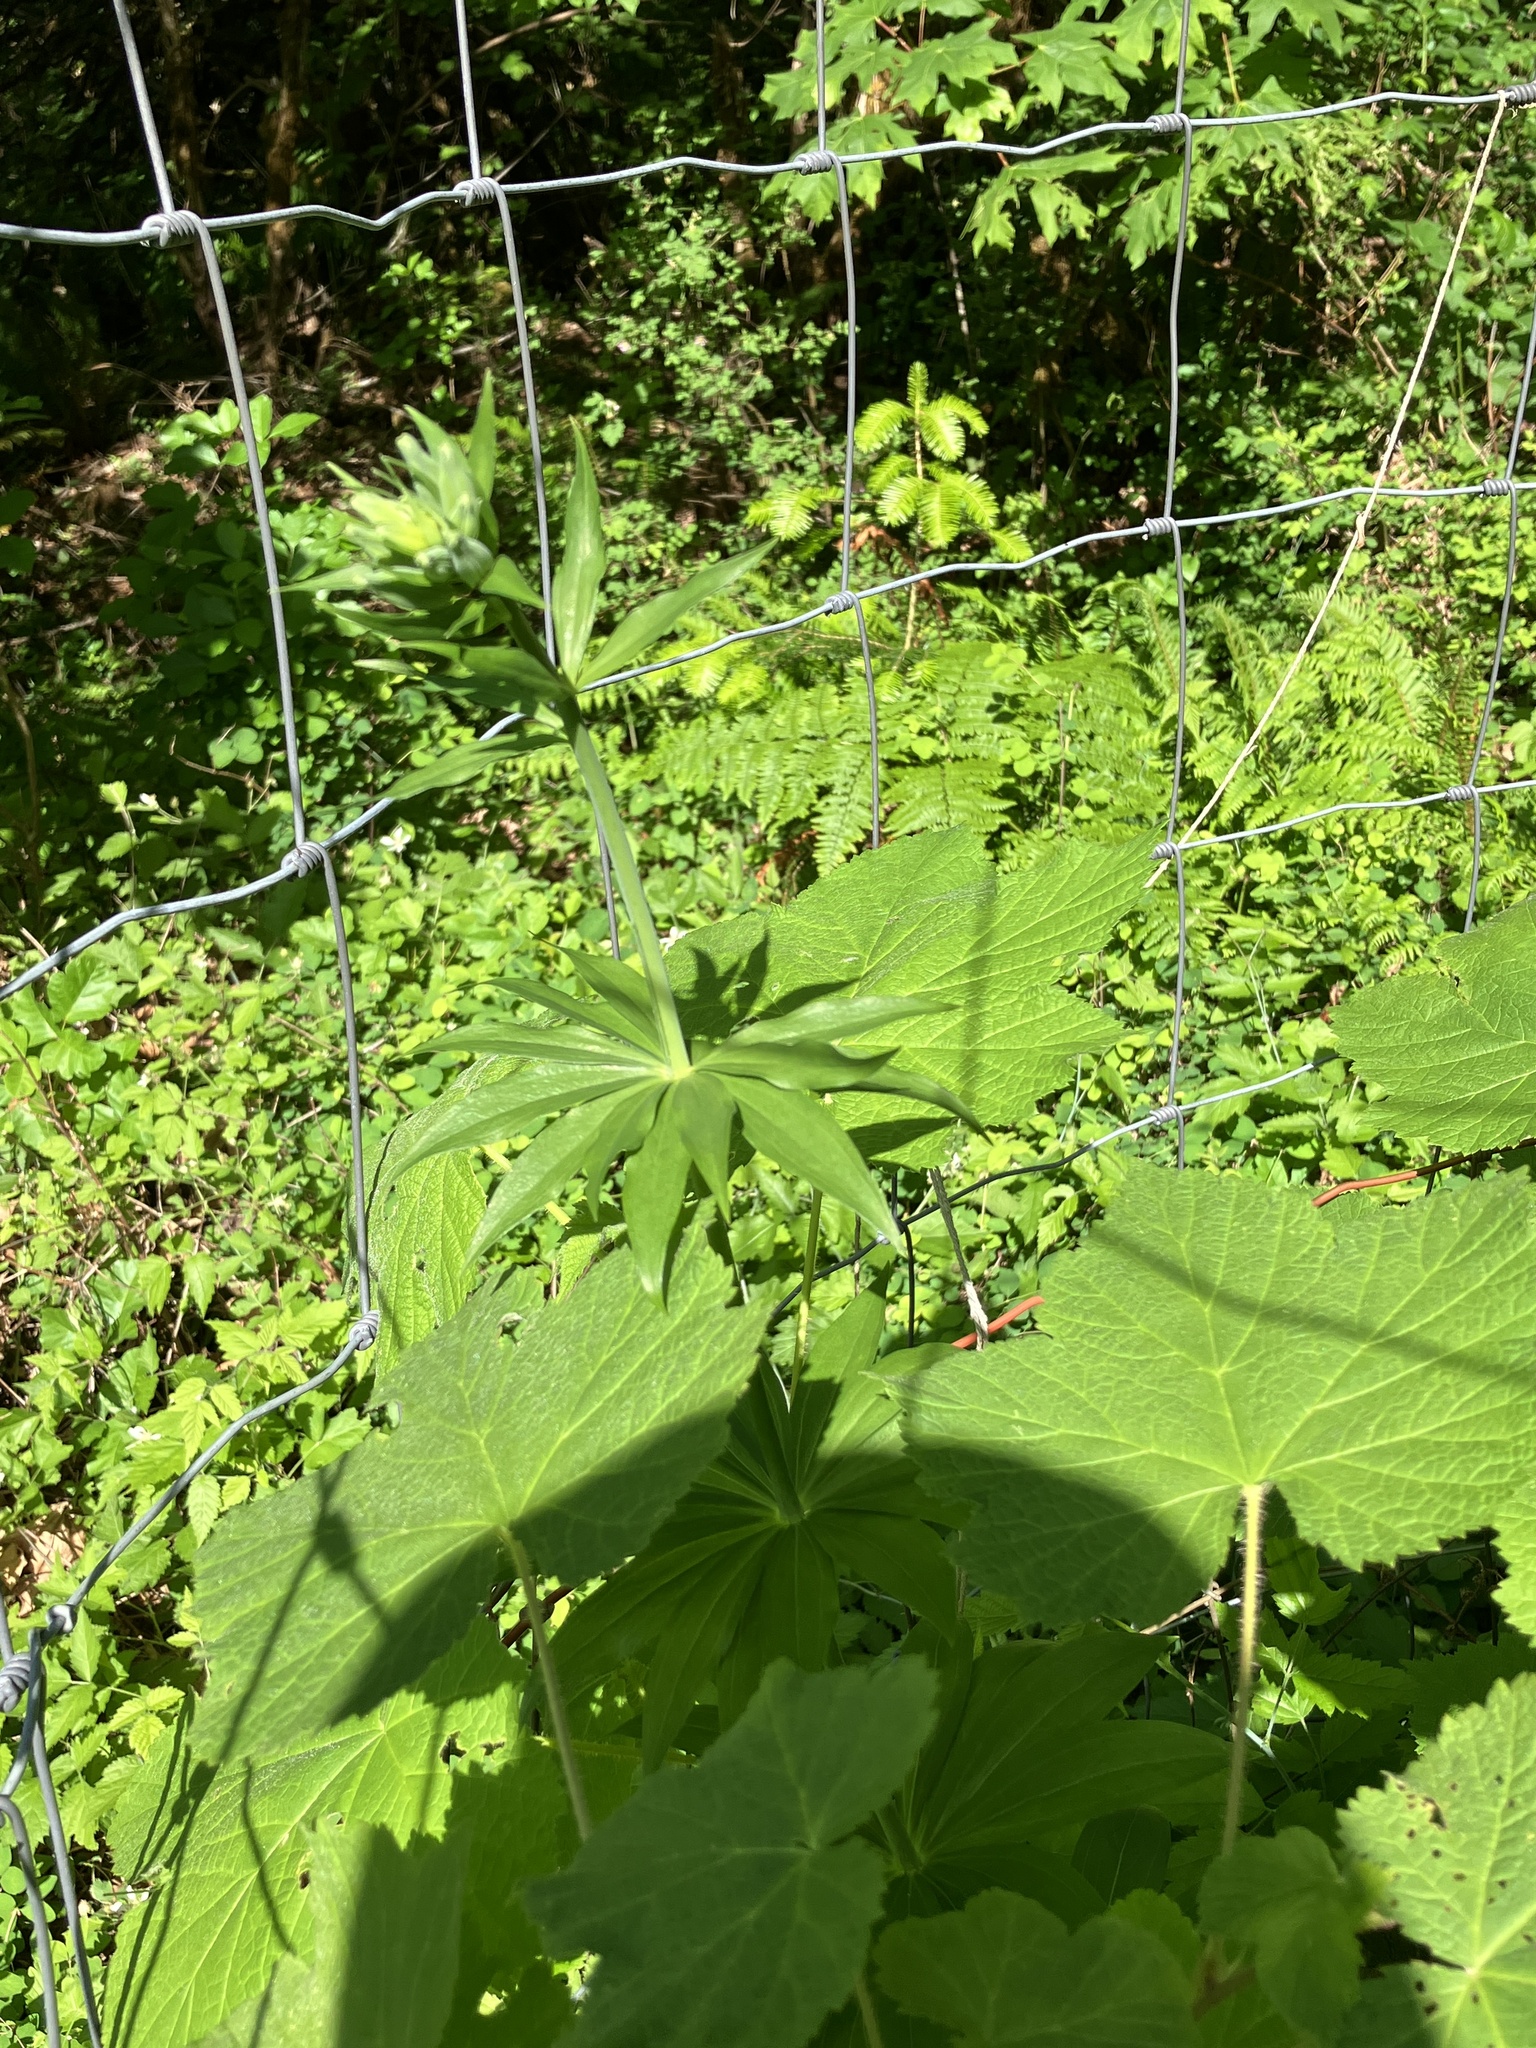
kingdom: Plantae
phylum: Tracheophyta
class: Liliopsida
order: Liliales
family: Liliaceae
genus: Lilium
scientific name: Lilium columbianum
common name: Columbia lily
